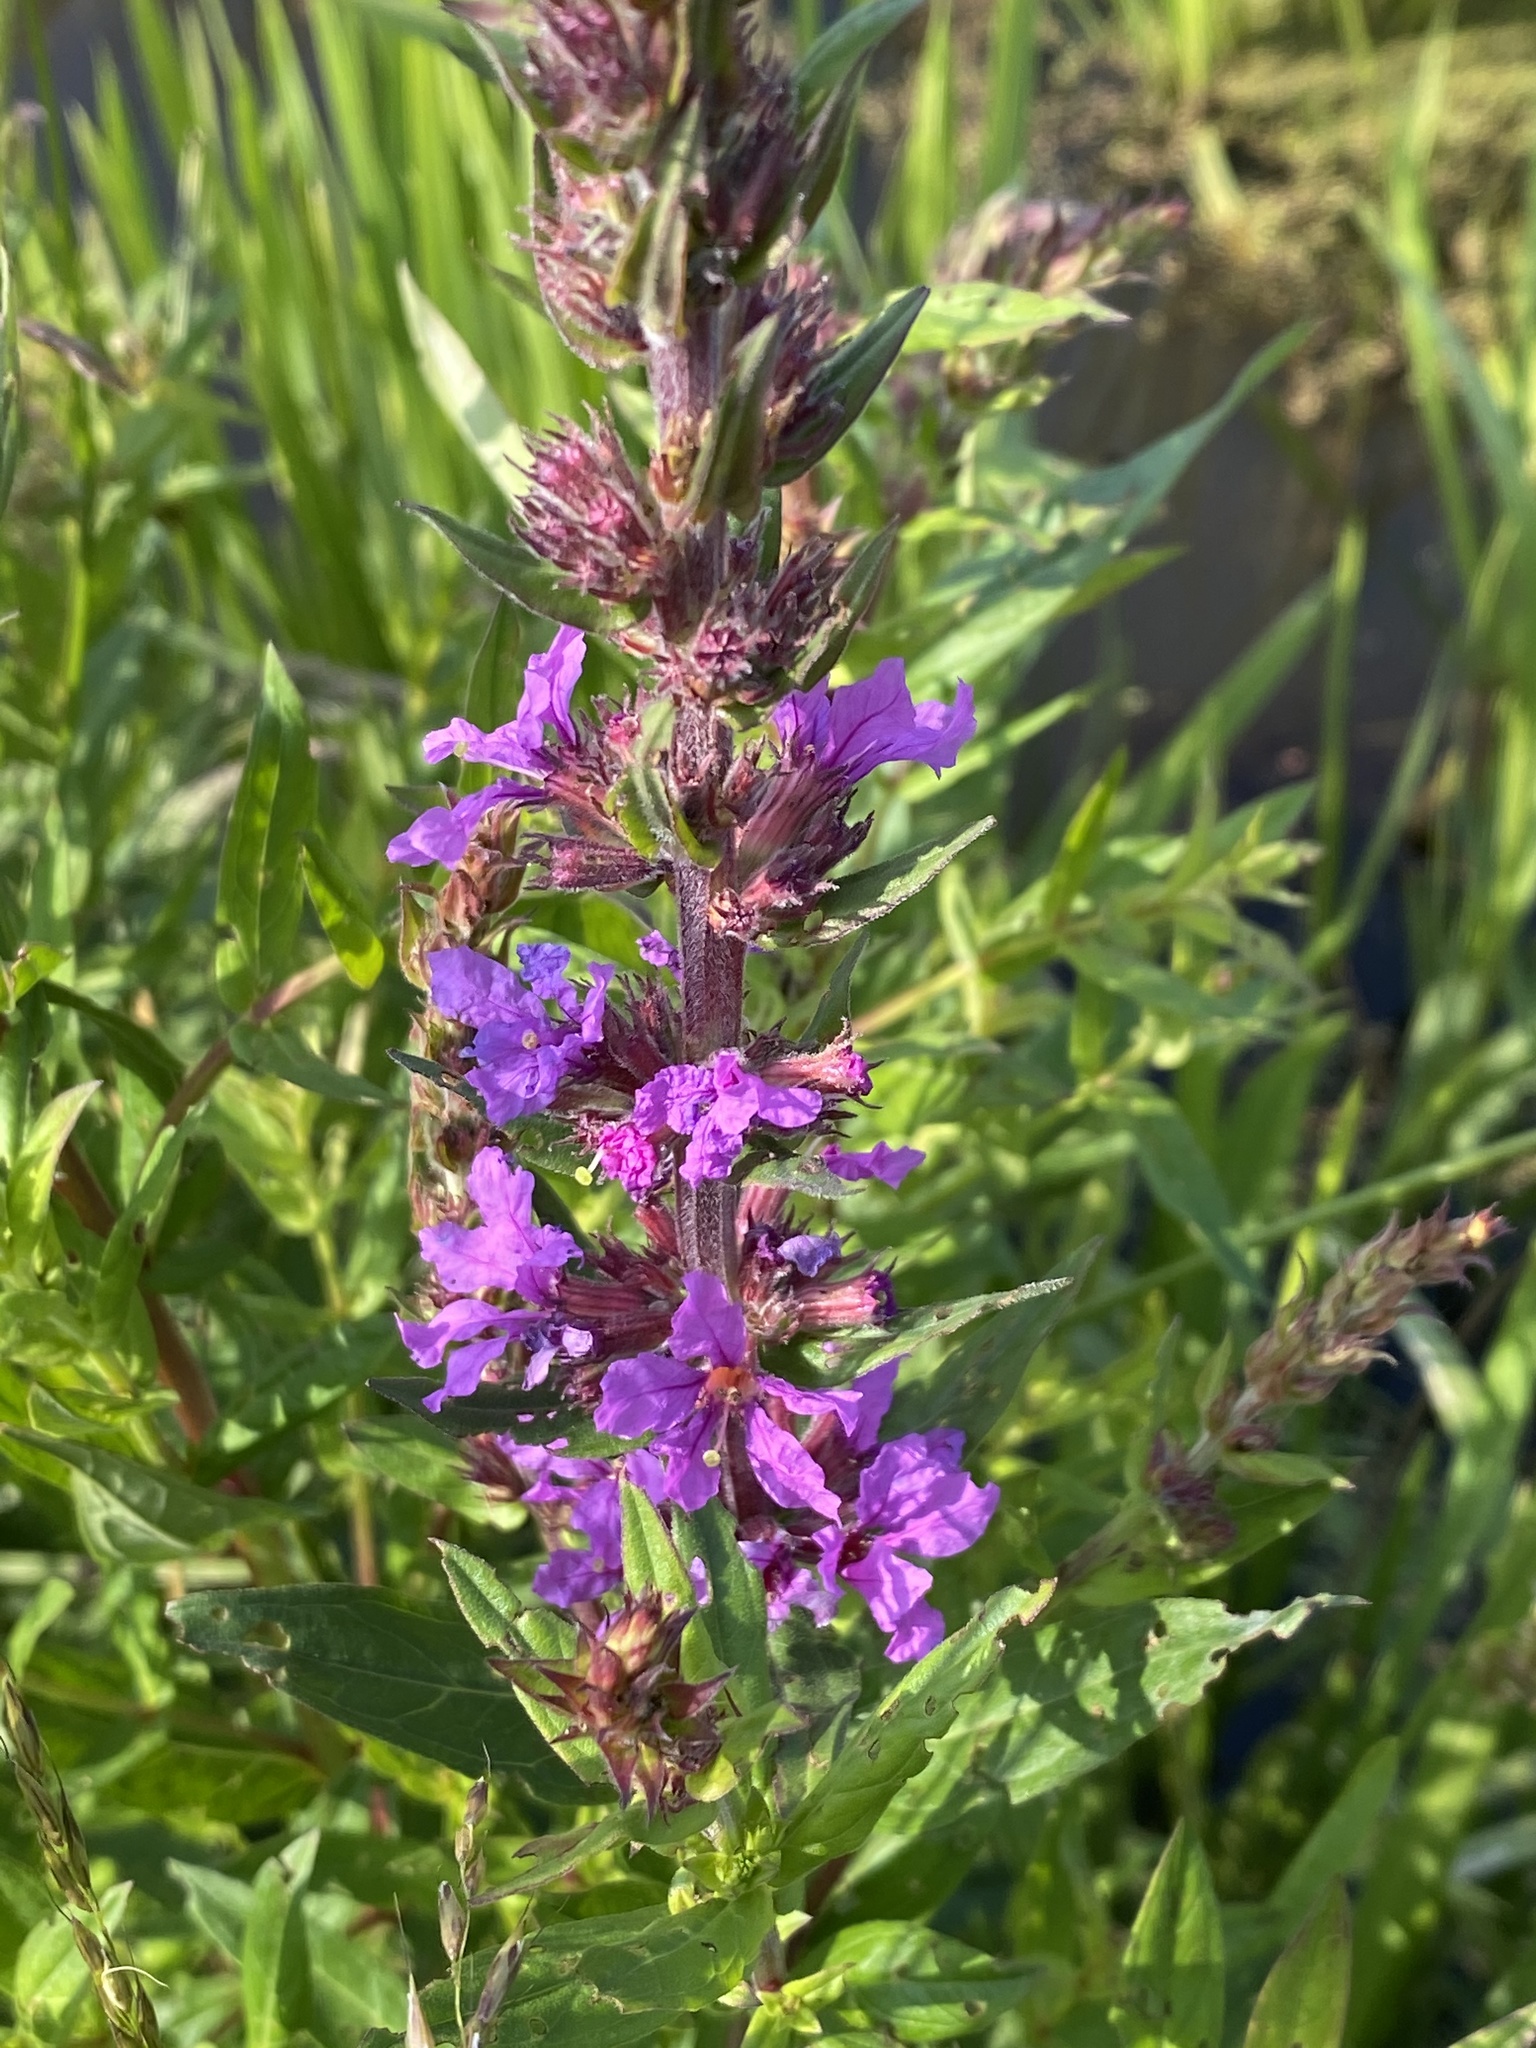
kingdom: Plantae
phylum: Tracheophyta
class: Magnoliopsida
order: Myrtales
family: Lythraceae
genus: Lythrum
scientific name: Lythrum salicaria
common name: Purple loosestrife
